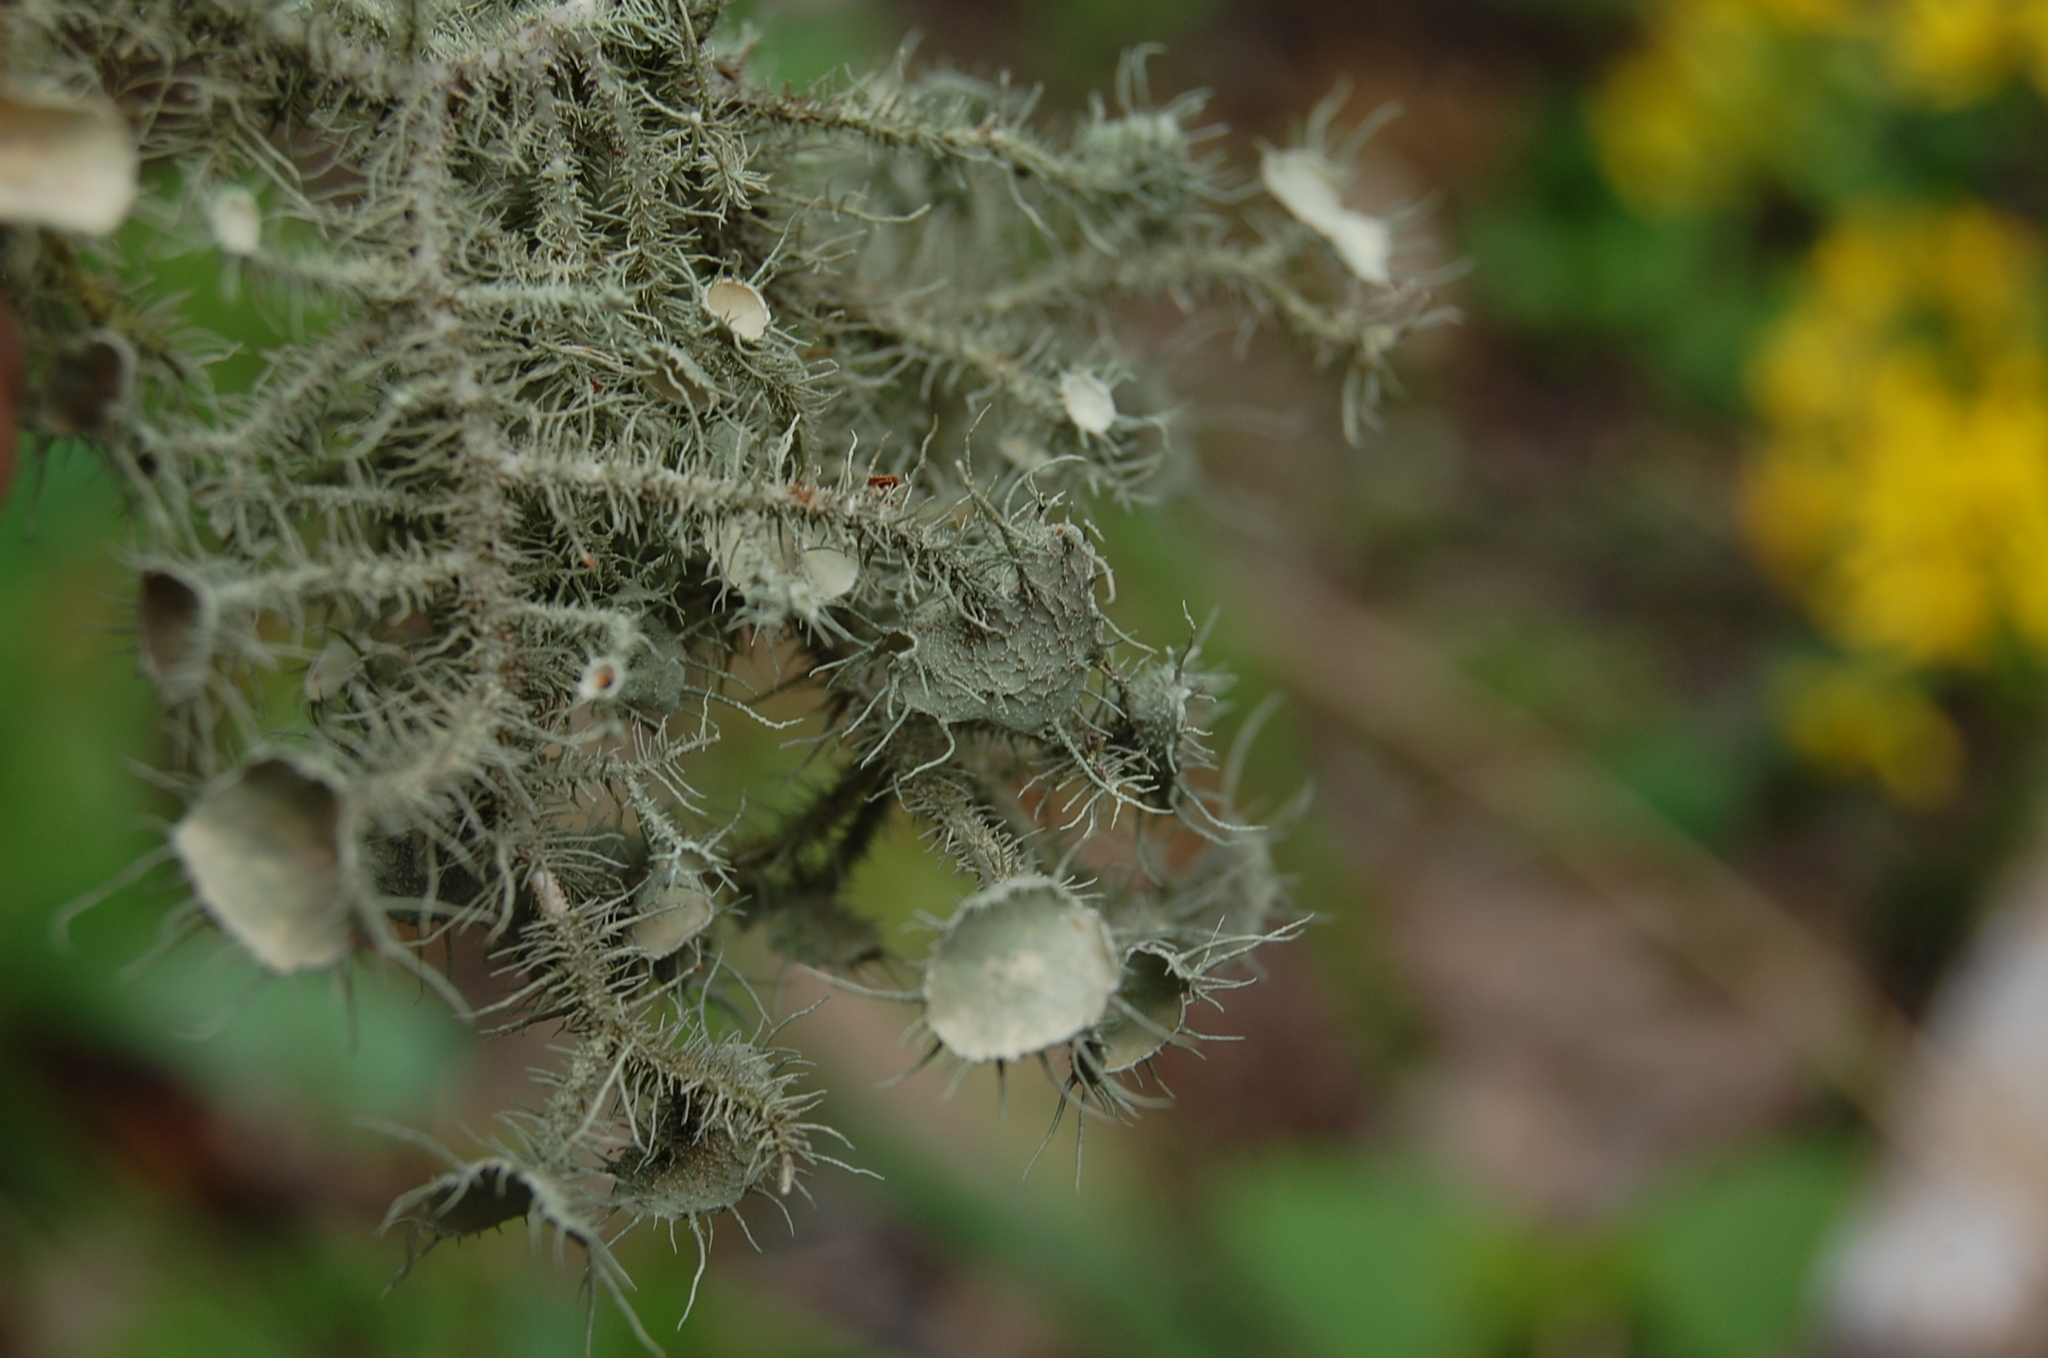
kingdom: Fungi
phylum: Ascomycota
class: Lecanoromycetes
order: Lecanorales
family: Parmeliaceae
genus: Usnea
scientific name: Usnea strigosa
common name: Bushy beard lichen
